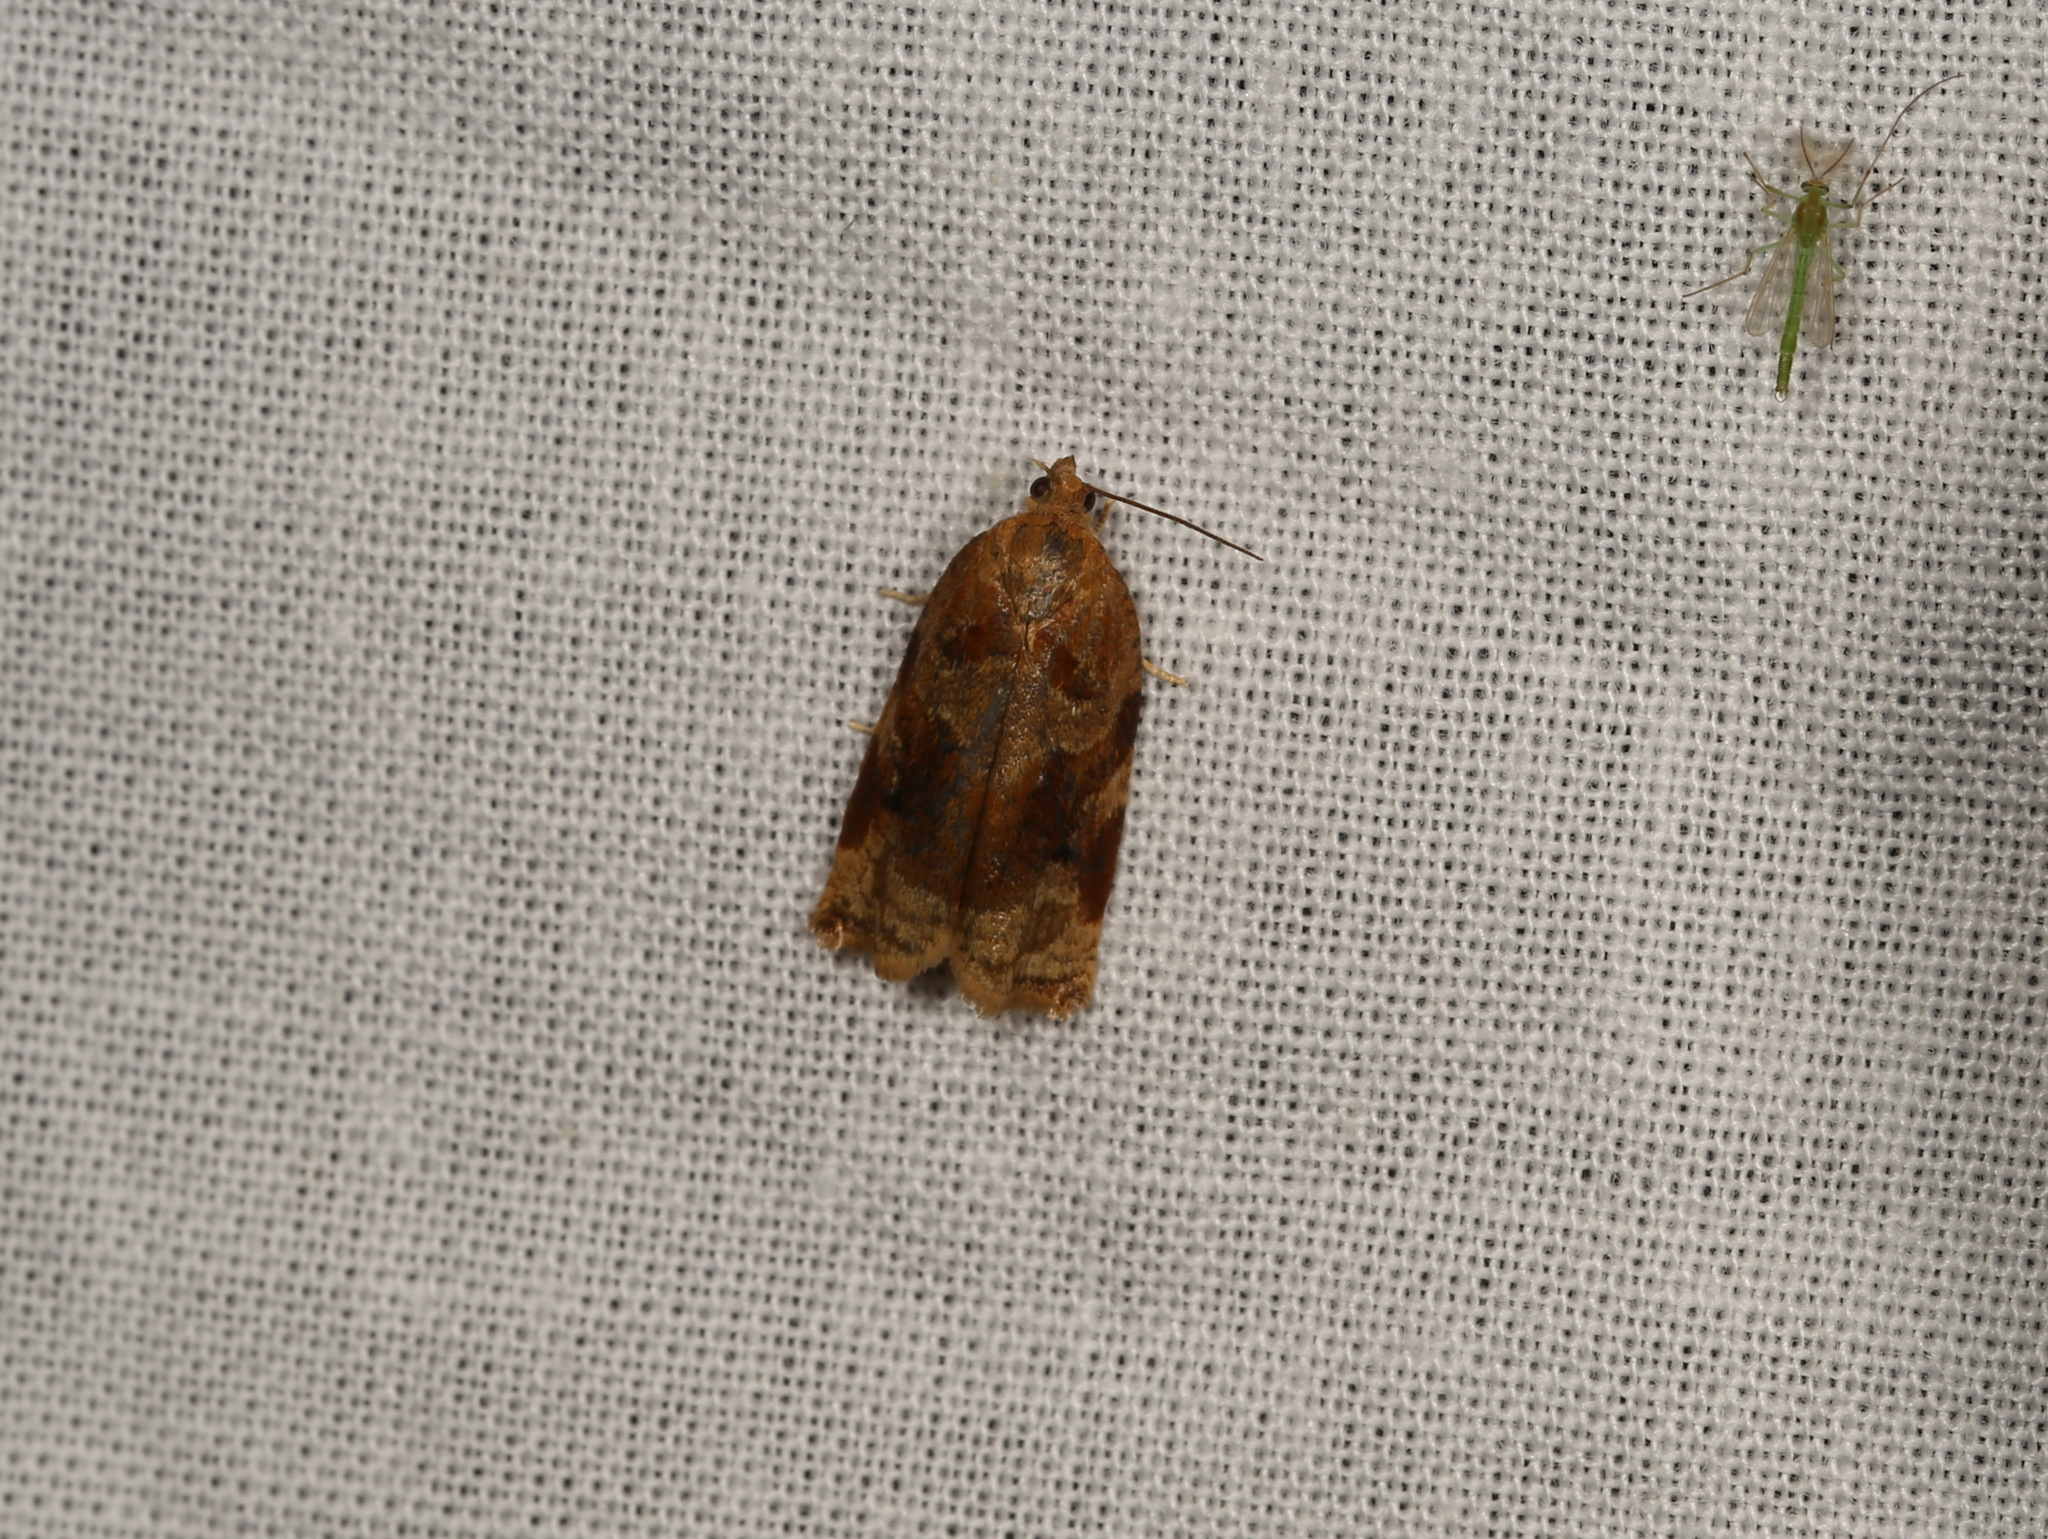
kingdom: Animalia
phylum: Arthropoda
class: Insecta
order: Lepidoptera
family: Tortricidae
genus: Archips
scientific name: Archips xylosteana
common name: Variegated golden tortrix
